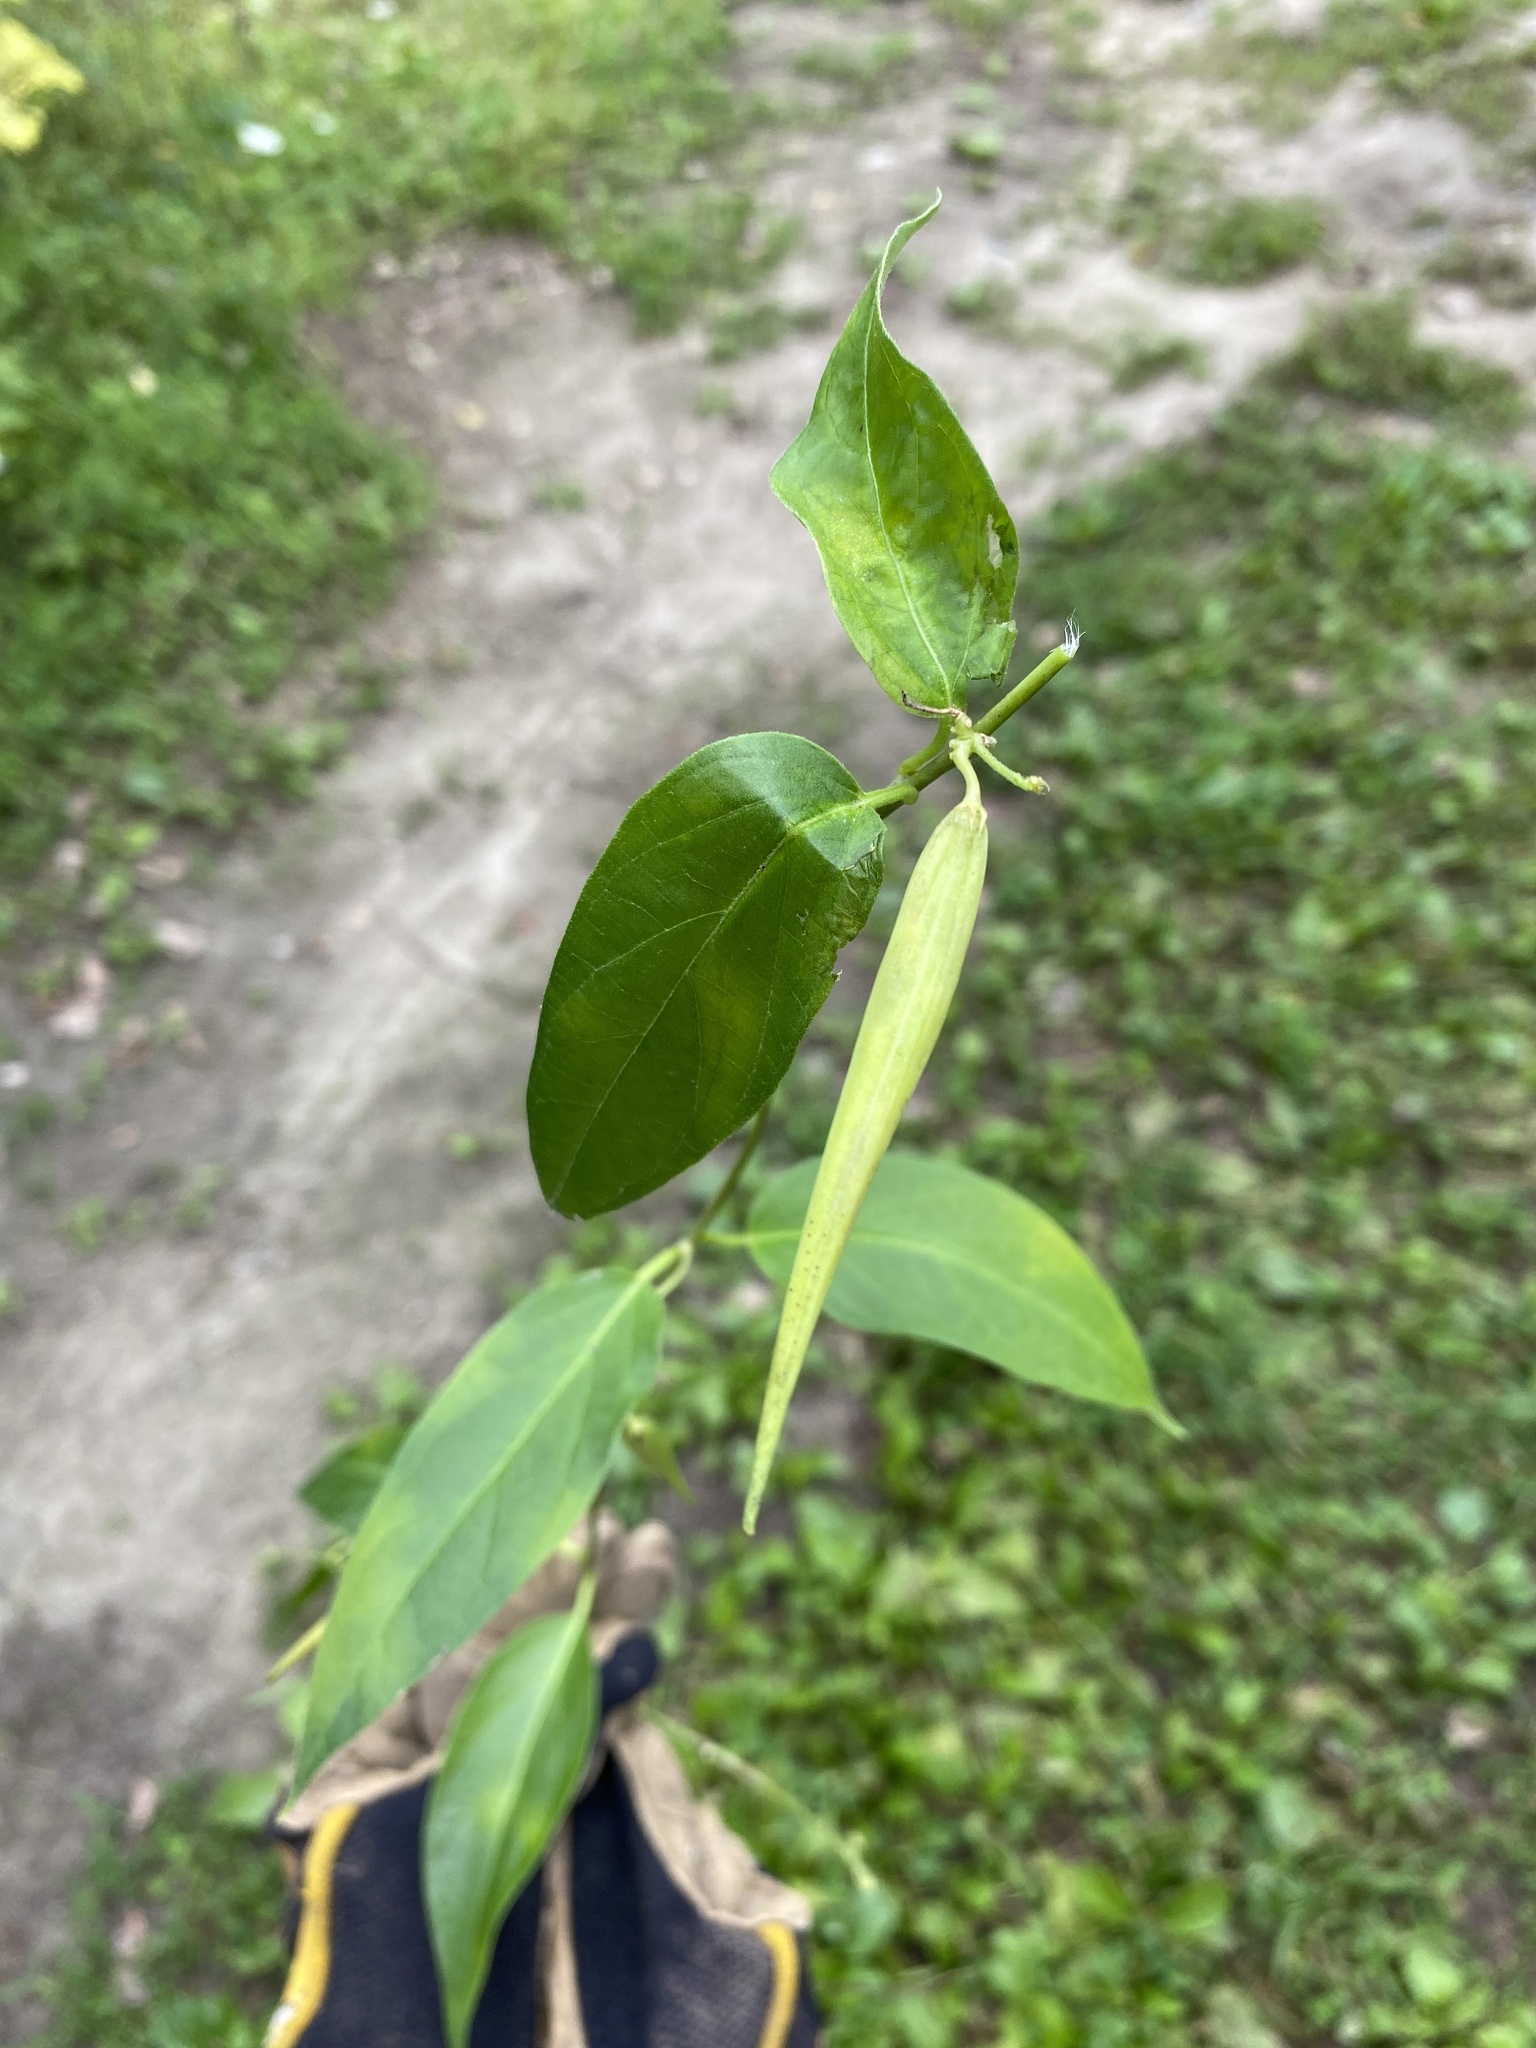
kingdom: Plantae
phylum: Tracheophyta
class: Magnoliopsida
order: Gentianales
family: Apocynaceae
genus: Vincetoxicum
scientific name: Vincetoxicum nigrum
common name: Black swallow-wort
